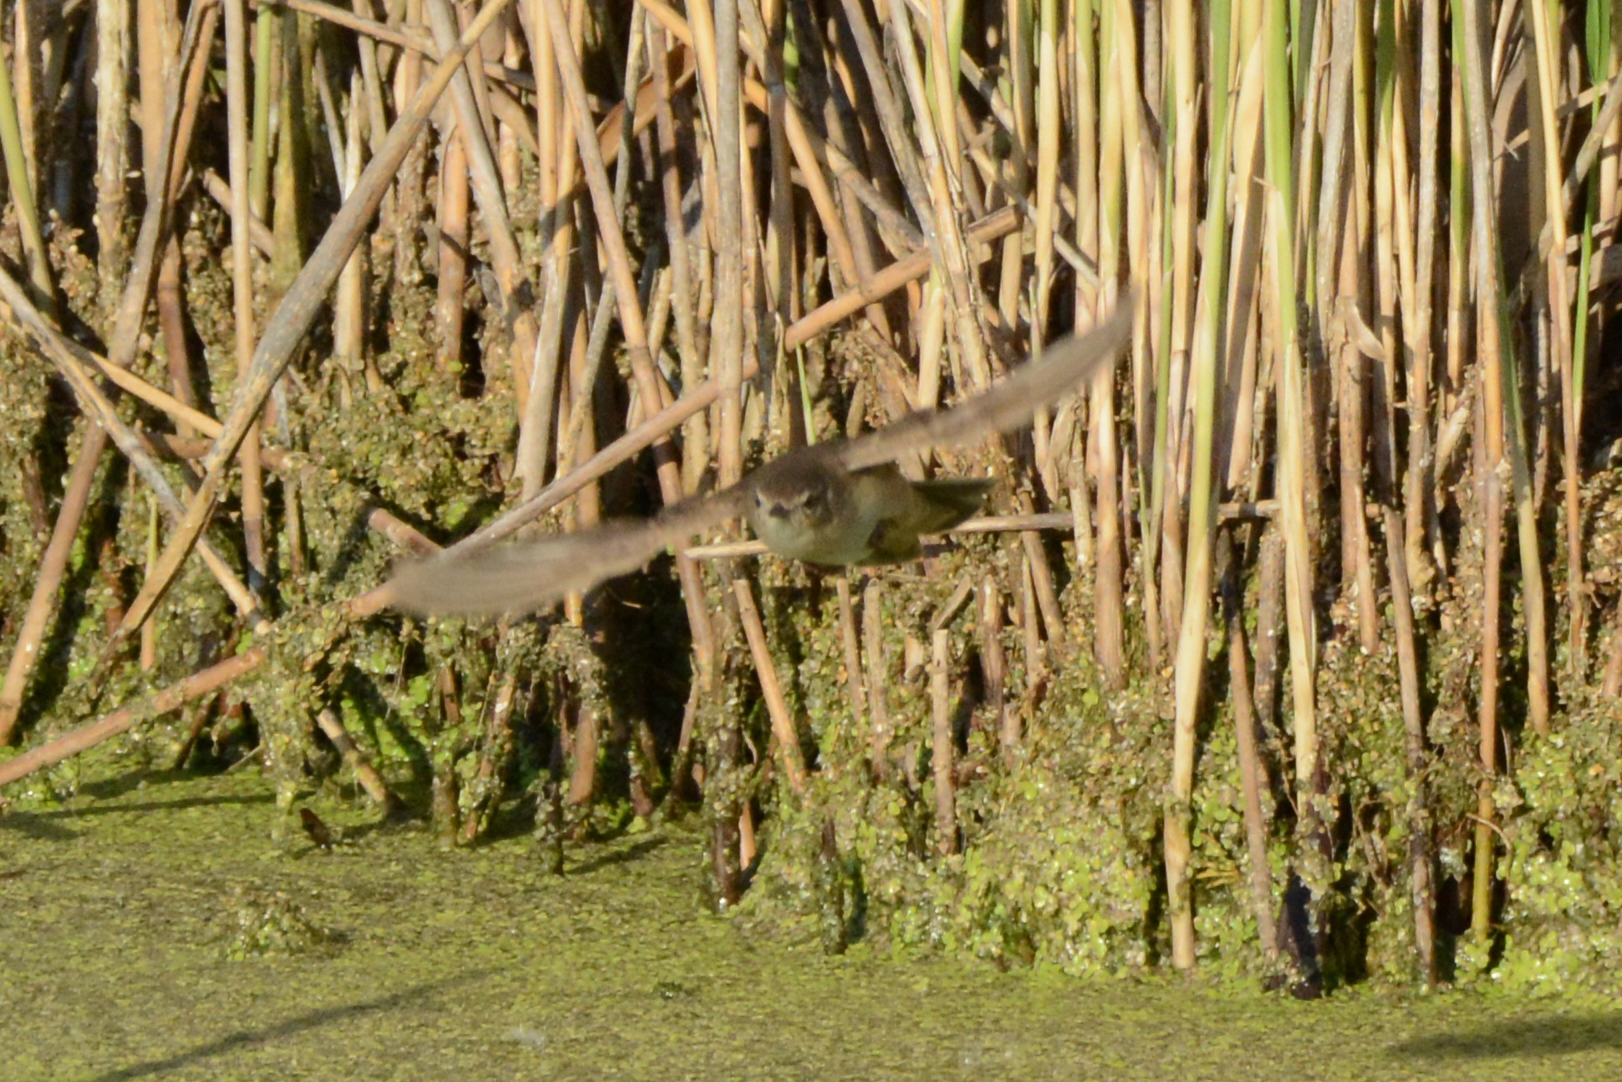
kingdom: Animalia
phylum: Chordata
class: Aves
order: Passeriformes
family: Locustellidae
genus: Locustella
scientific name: Locustella luscinioides
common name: Savi's warbler
